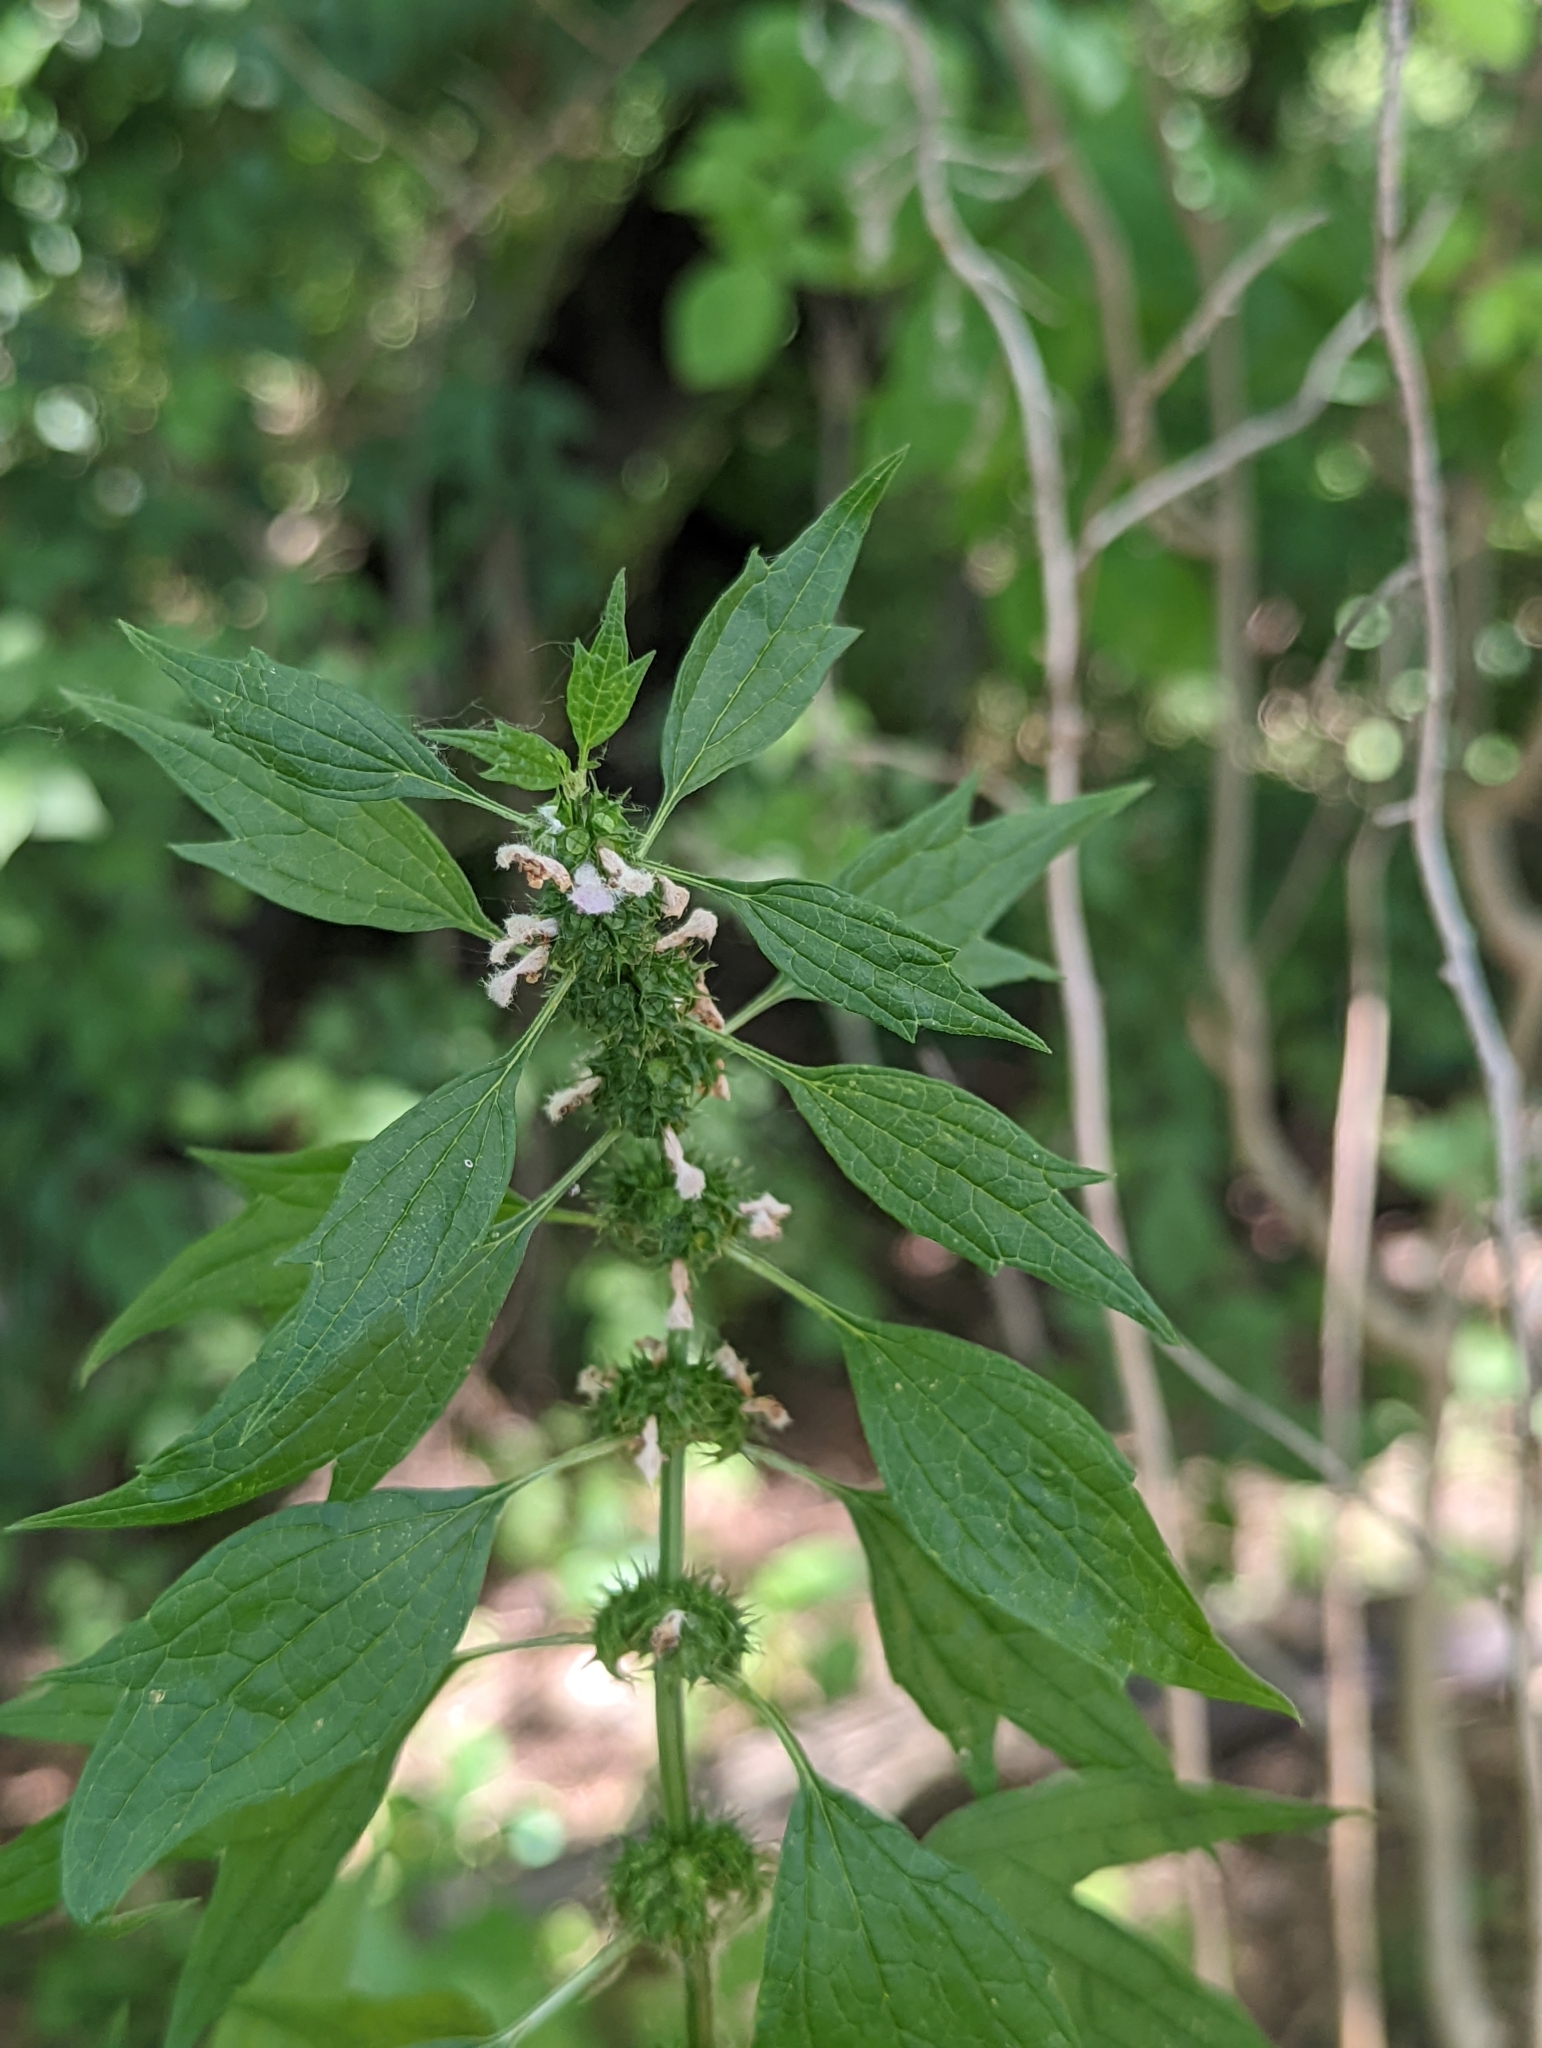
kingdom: Plantae
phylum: Tracheophyta
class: Magnoliopsida
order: Lamiales
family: Lamiaceae
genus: Leonurus
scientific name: Leonurus cardiaca
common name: Motherwort
